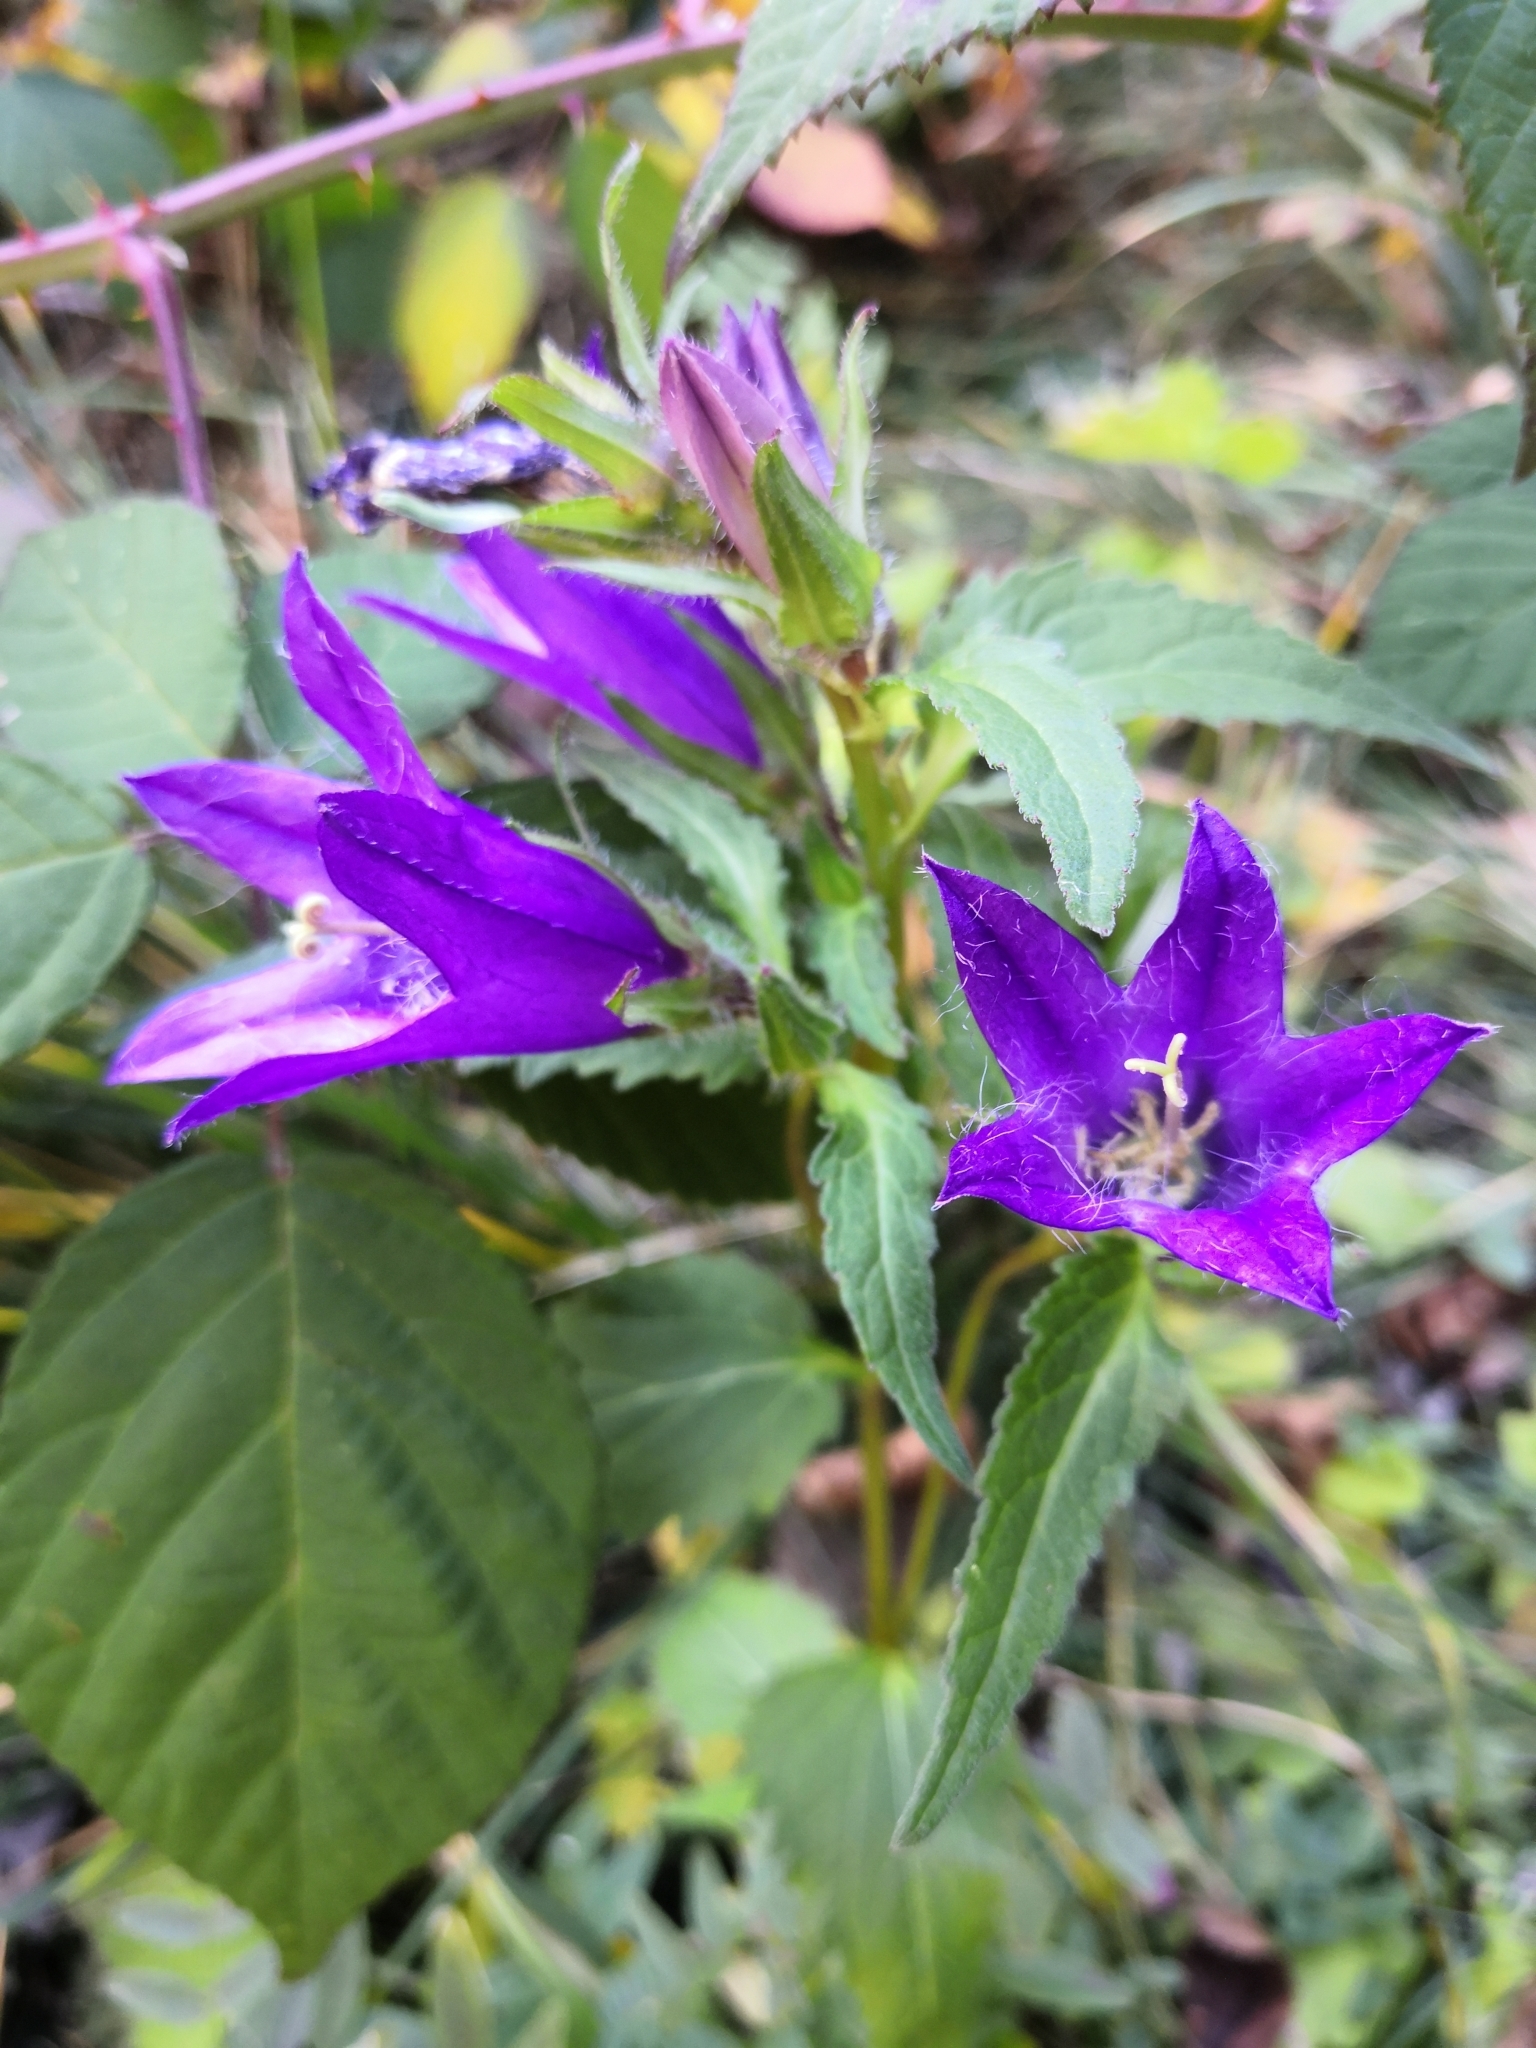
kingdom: Plantae
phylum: Tracheophyta
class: Magnoliopsida
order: Asterales
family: Campanulaceae
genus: Campanula
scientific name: Campanula trachelium
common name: Nettle-leaved bellflower
